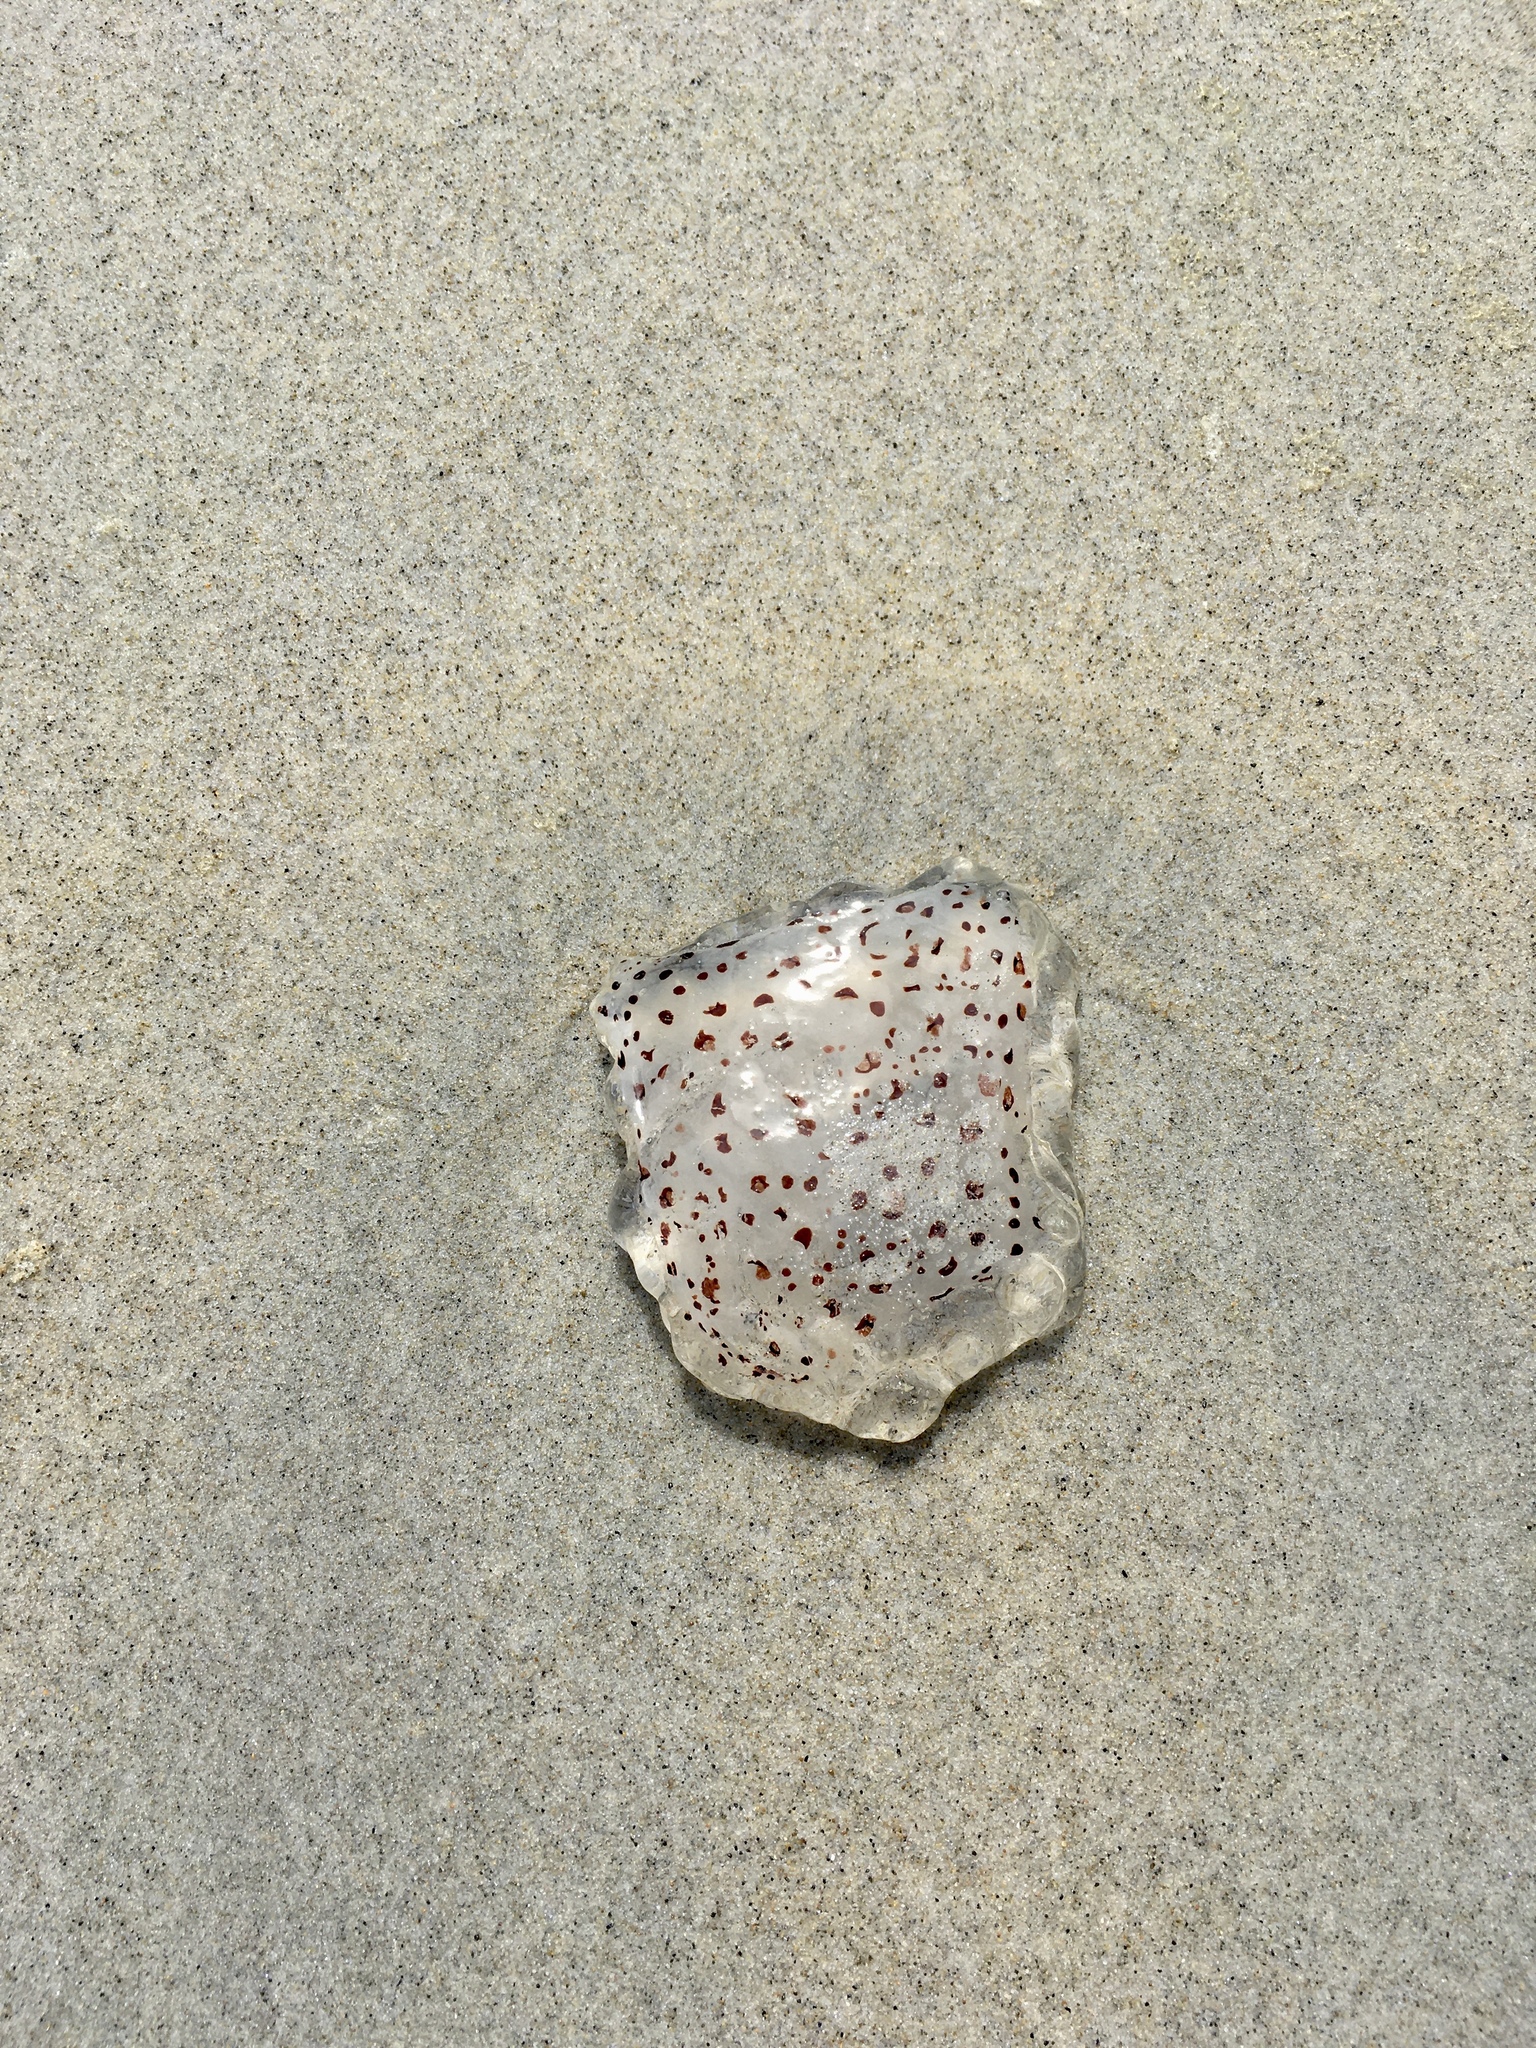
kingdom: Animalia
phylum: Cnidaria
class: Scyphozoa
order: Semaeostomeae
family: Cyaneidae
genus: Desmonema
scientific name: Desmonema gaudichaudi
